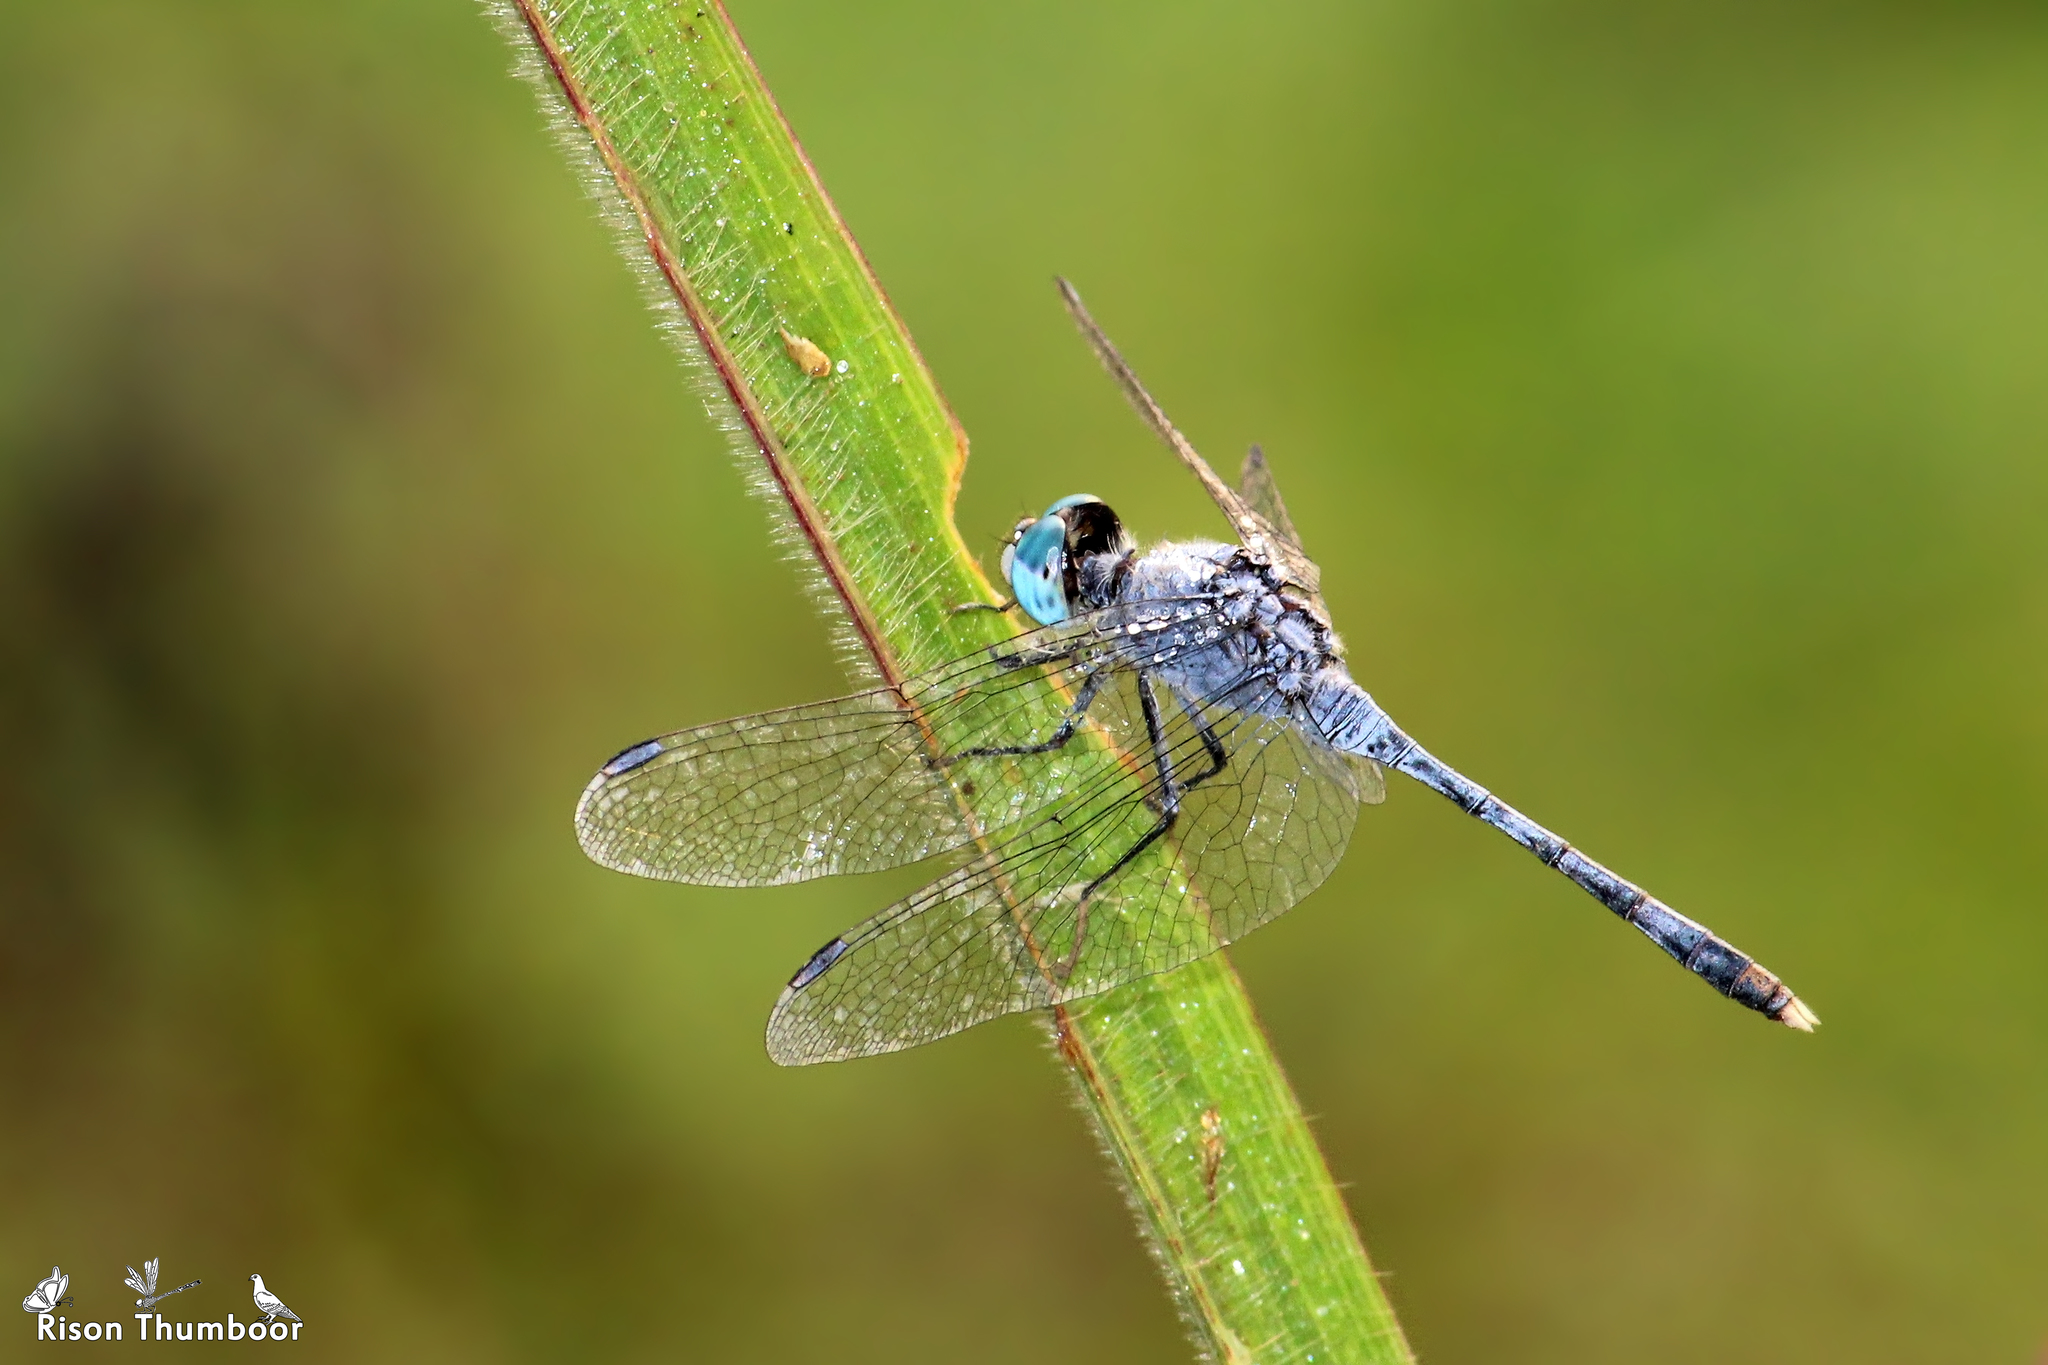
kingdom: Animalia
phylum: Arthropoda
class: Insecta
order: Odonata
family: Libellulidae
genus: Diplacodes
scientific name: Diplacodes trivialis
